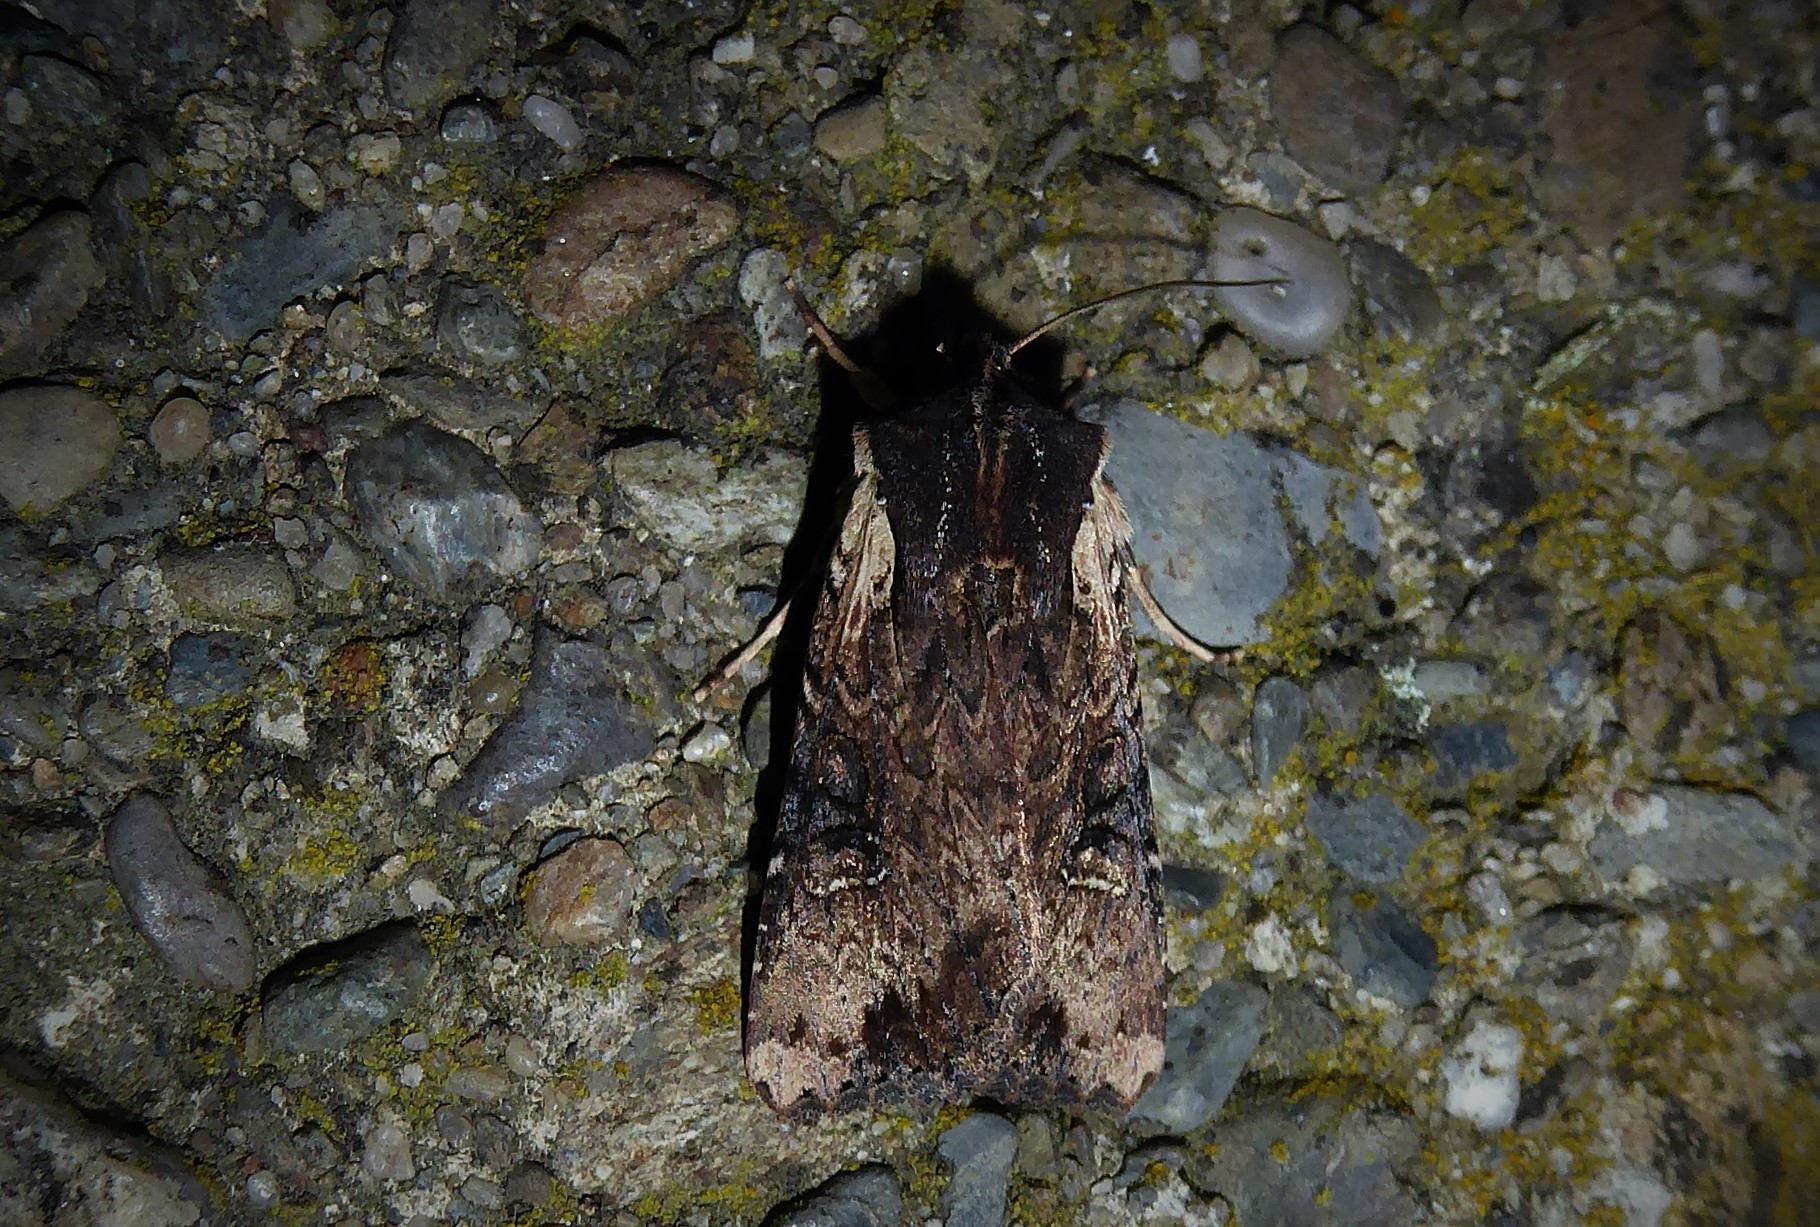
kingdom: Animalia
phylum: Arthropoda
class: Insecta
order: Lepidoptera
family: Noctuidae
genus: Ichneutica
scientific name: Ichneutica omoplaca
